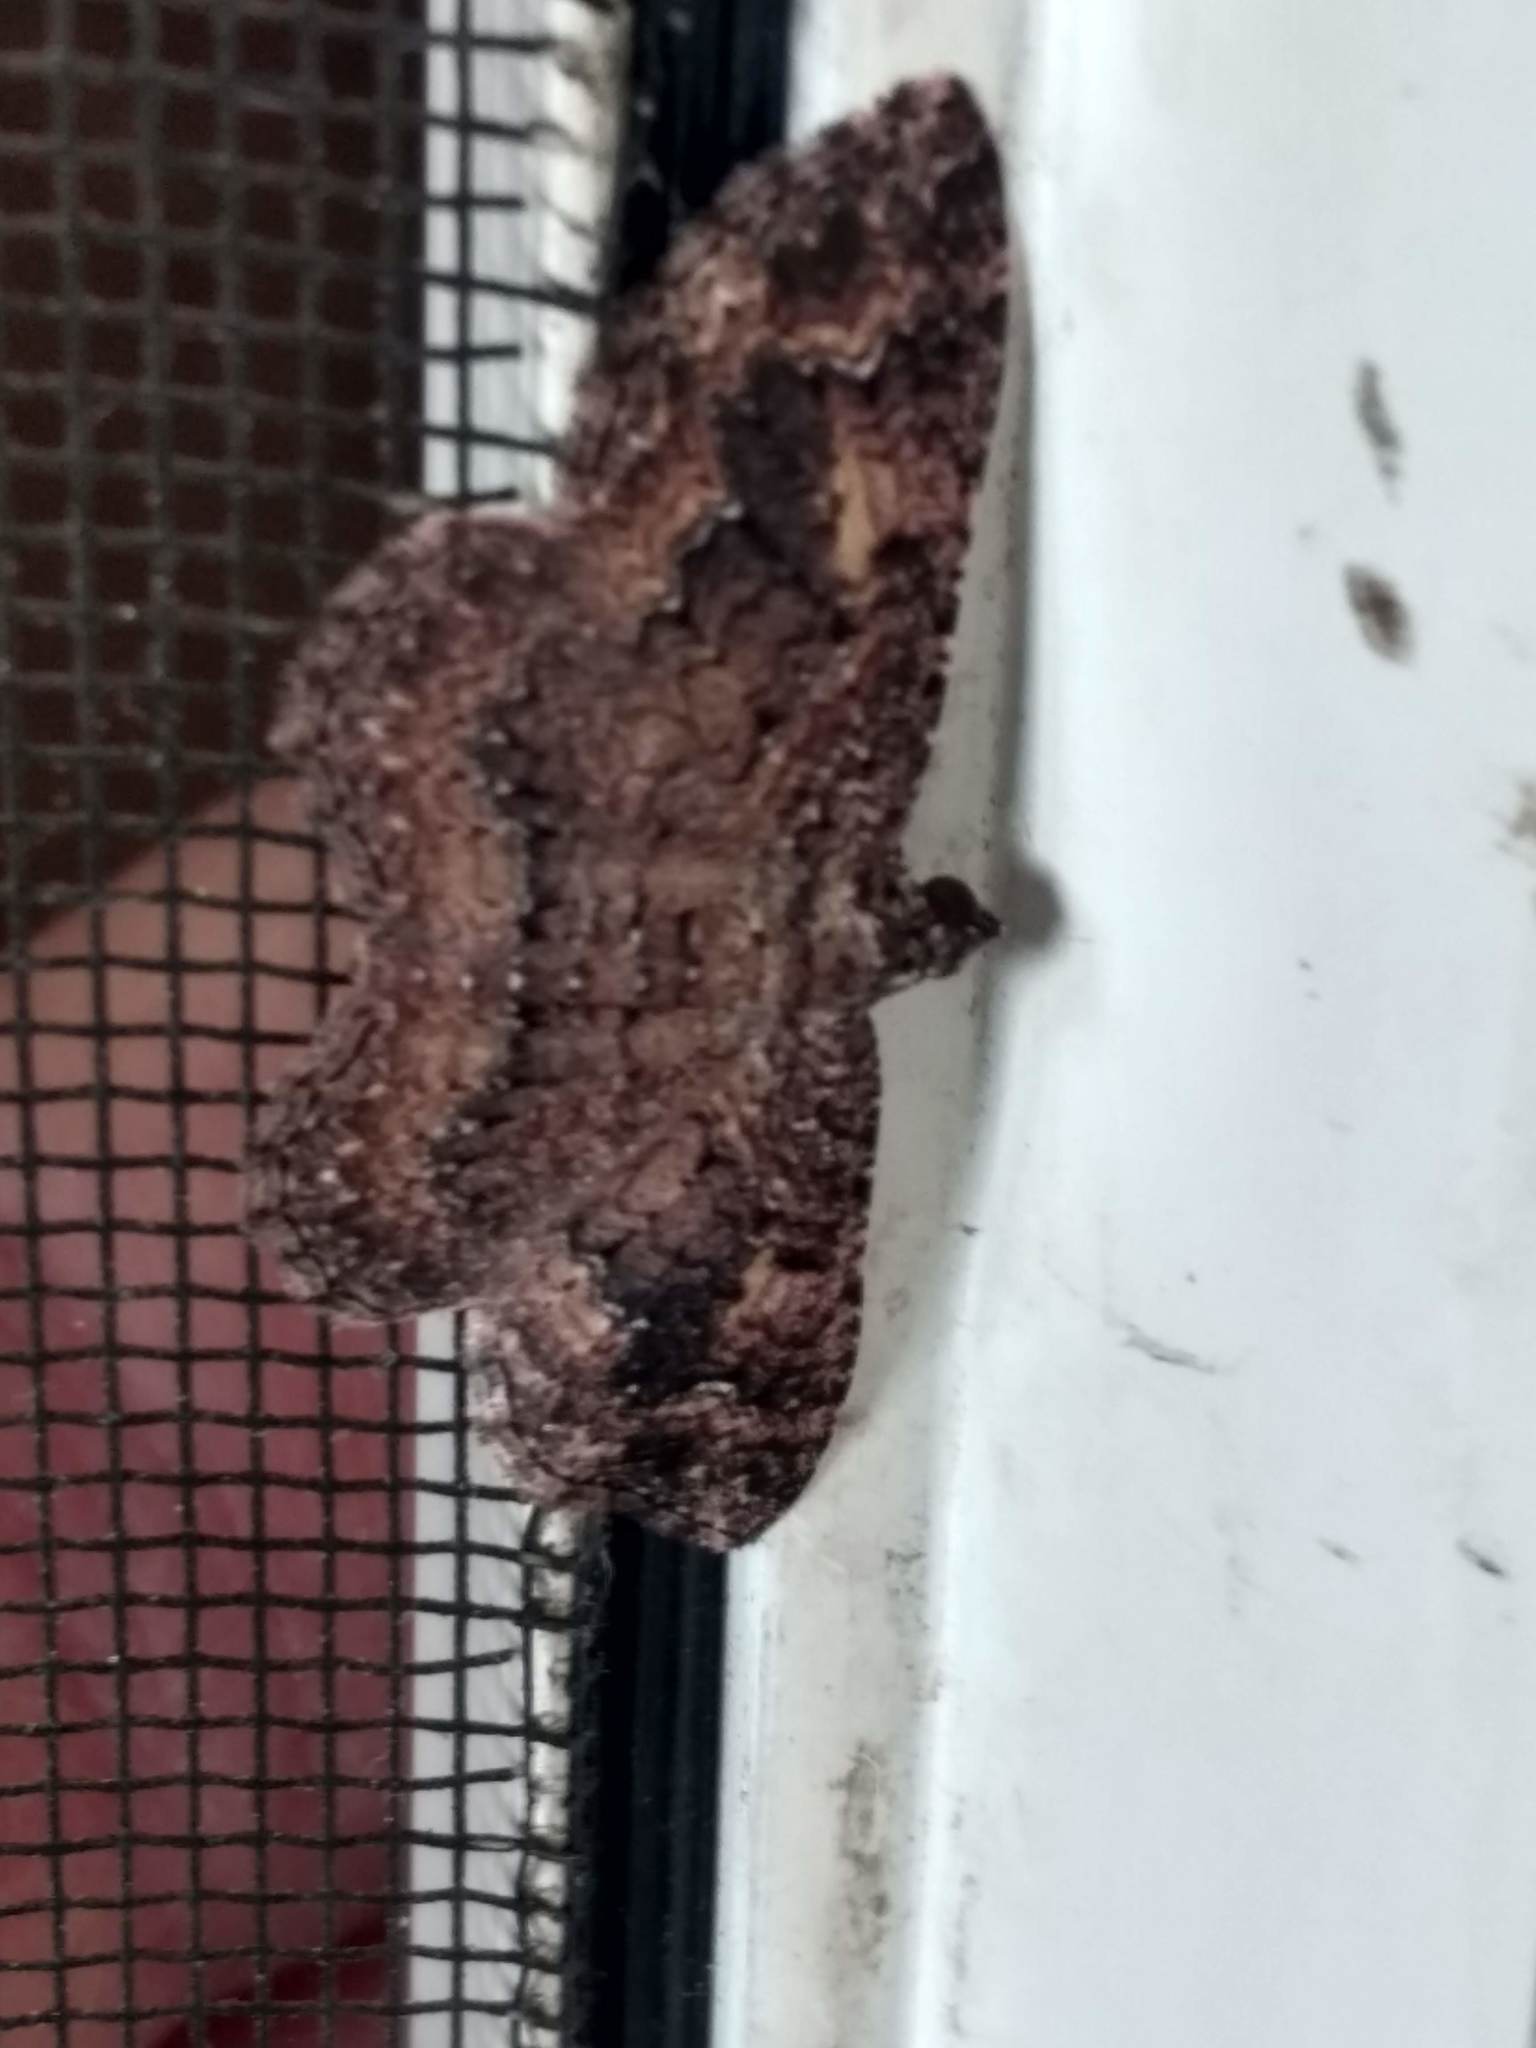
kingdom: Animalia
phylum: Arthropoda
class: Insecta
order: Lepidoptera
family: Geometridae
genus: Disclisioprocta
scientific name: Disclisioprocta stellata
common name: Somber carpet
